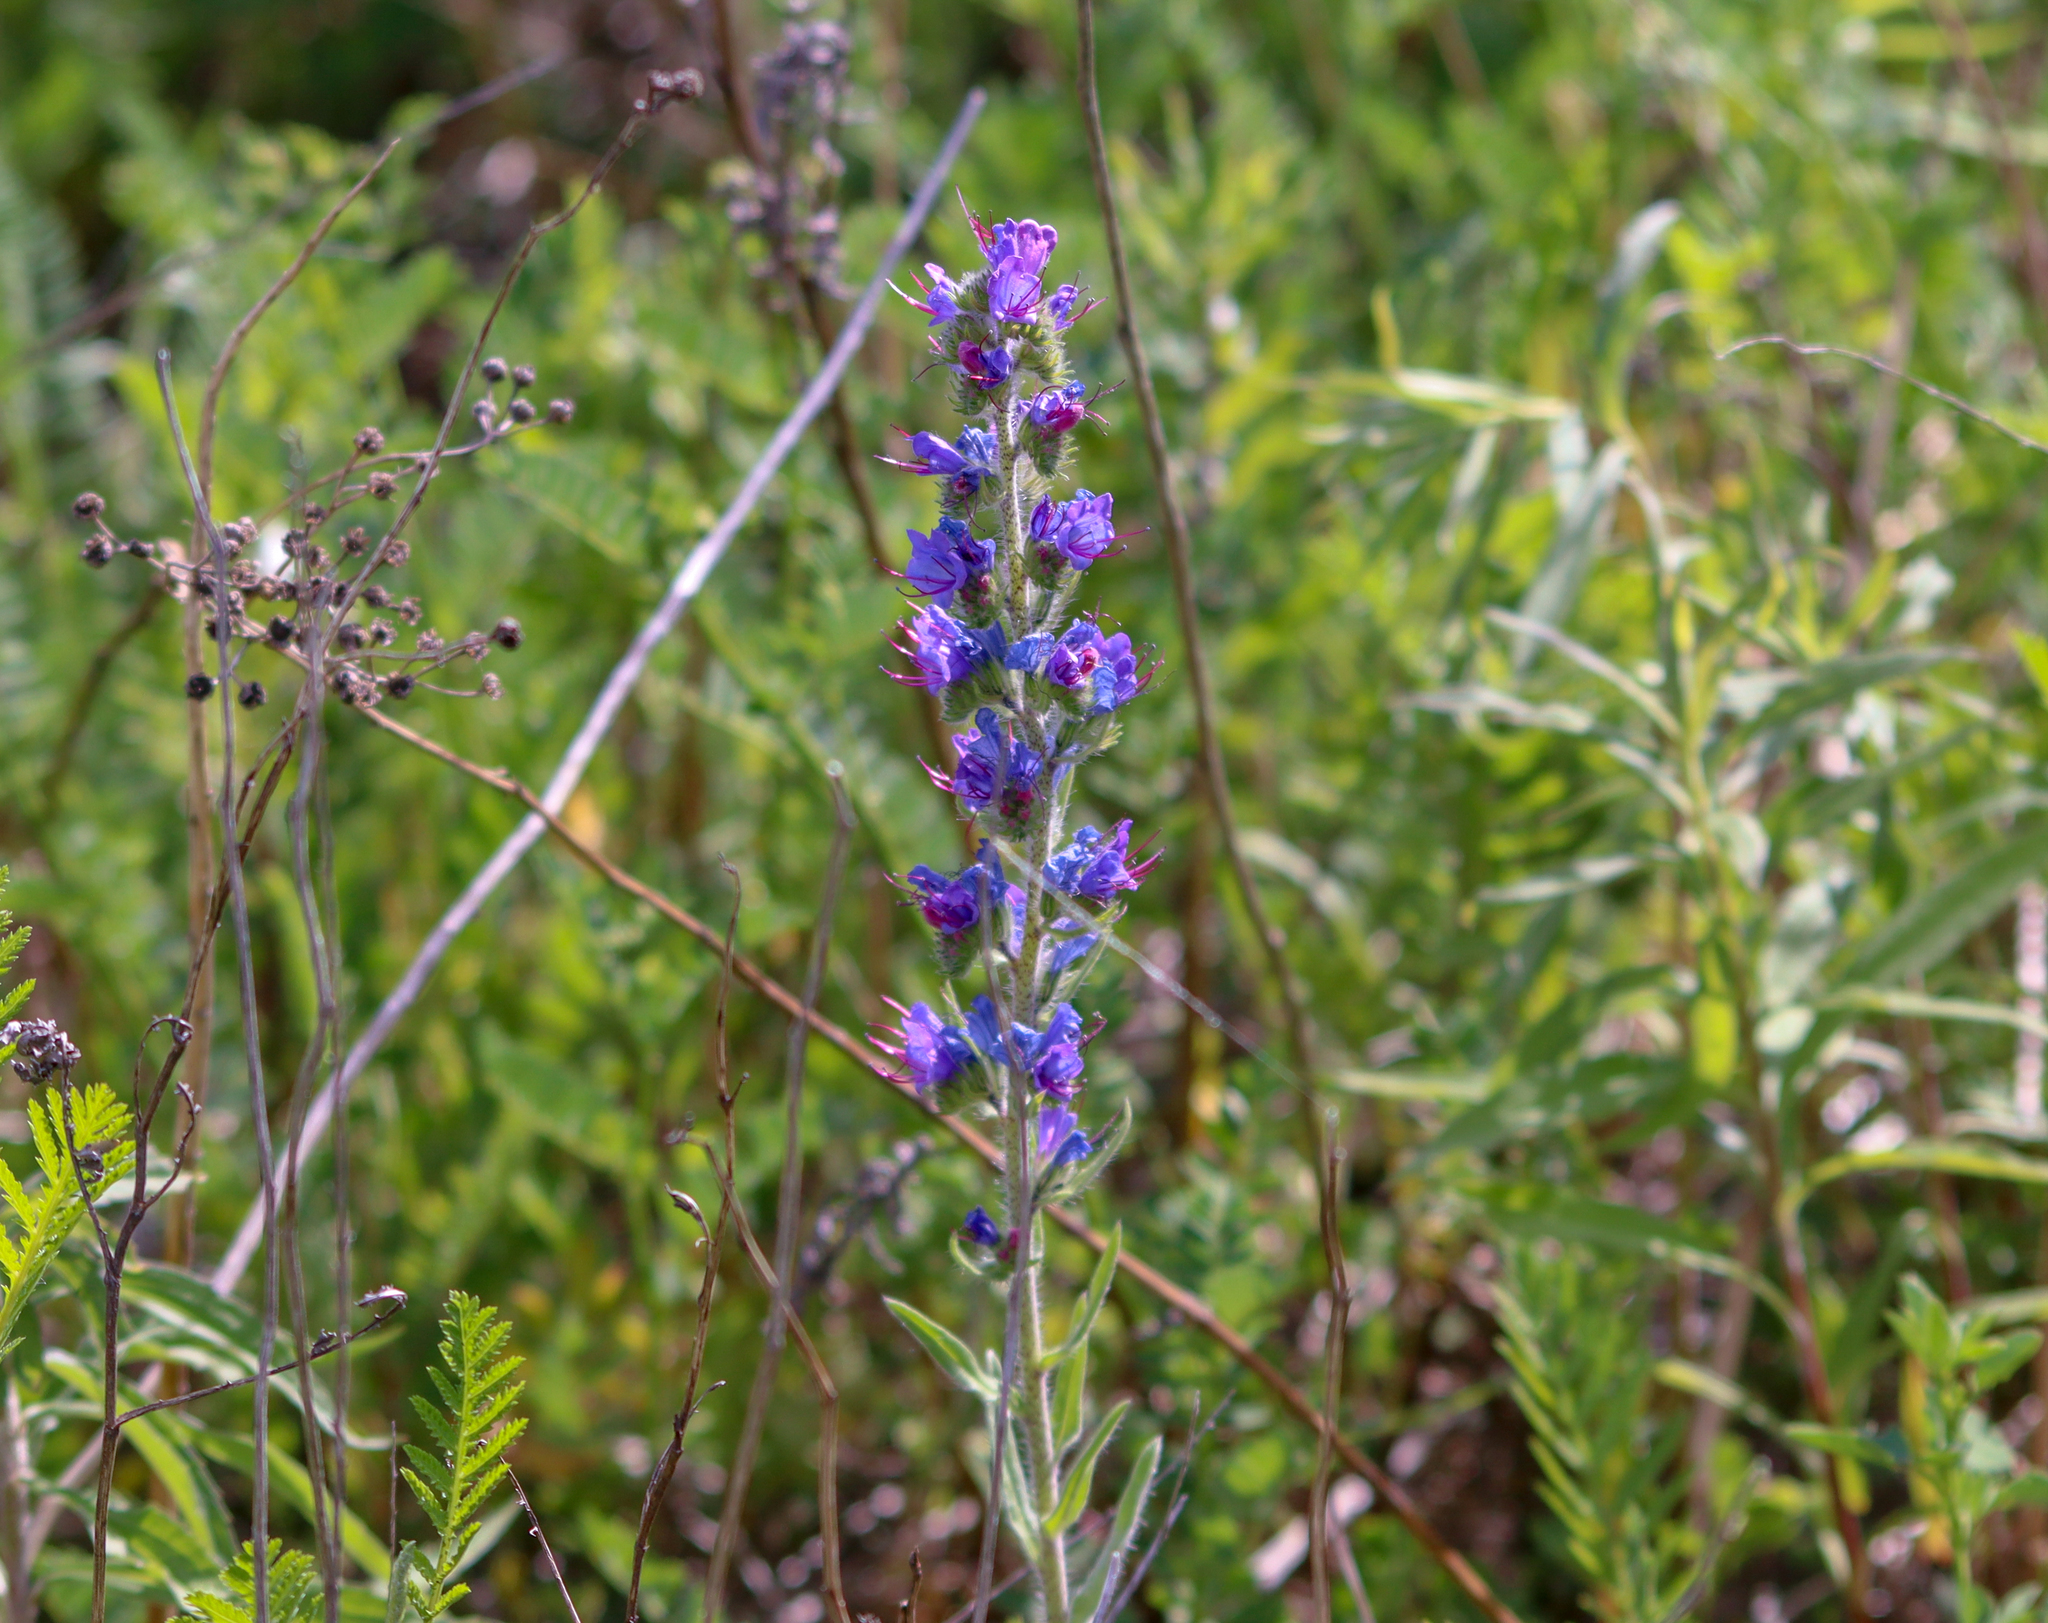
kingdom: Plantae
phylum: Tracheophyta
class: Magnoliopsida
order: Boraginales
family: Boraginaceae
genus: Echium
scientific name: Echium vulgare
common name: Common viper's bugloss
